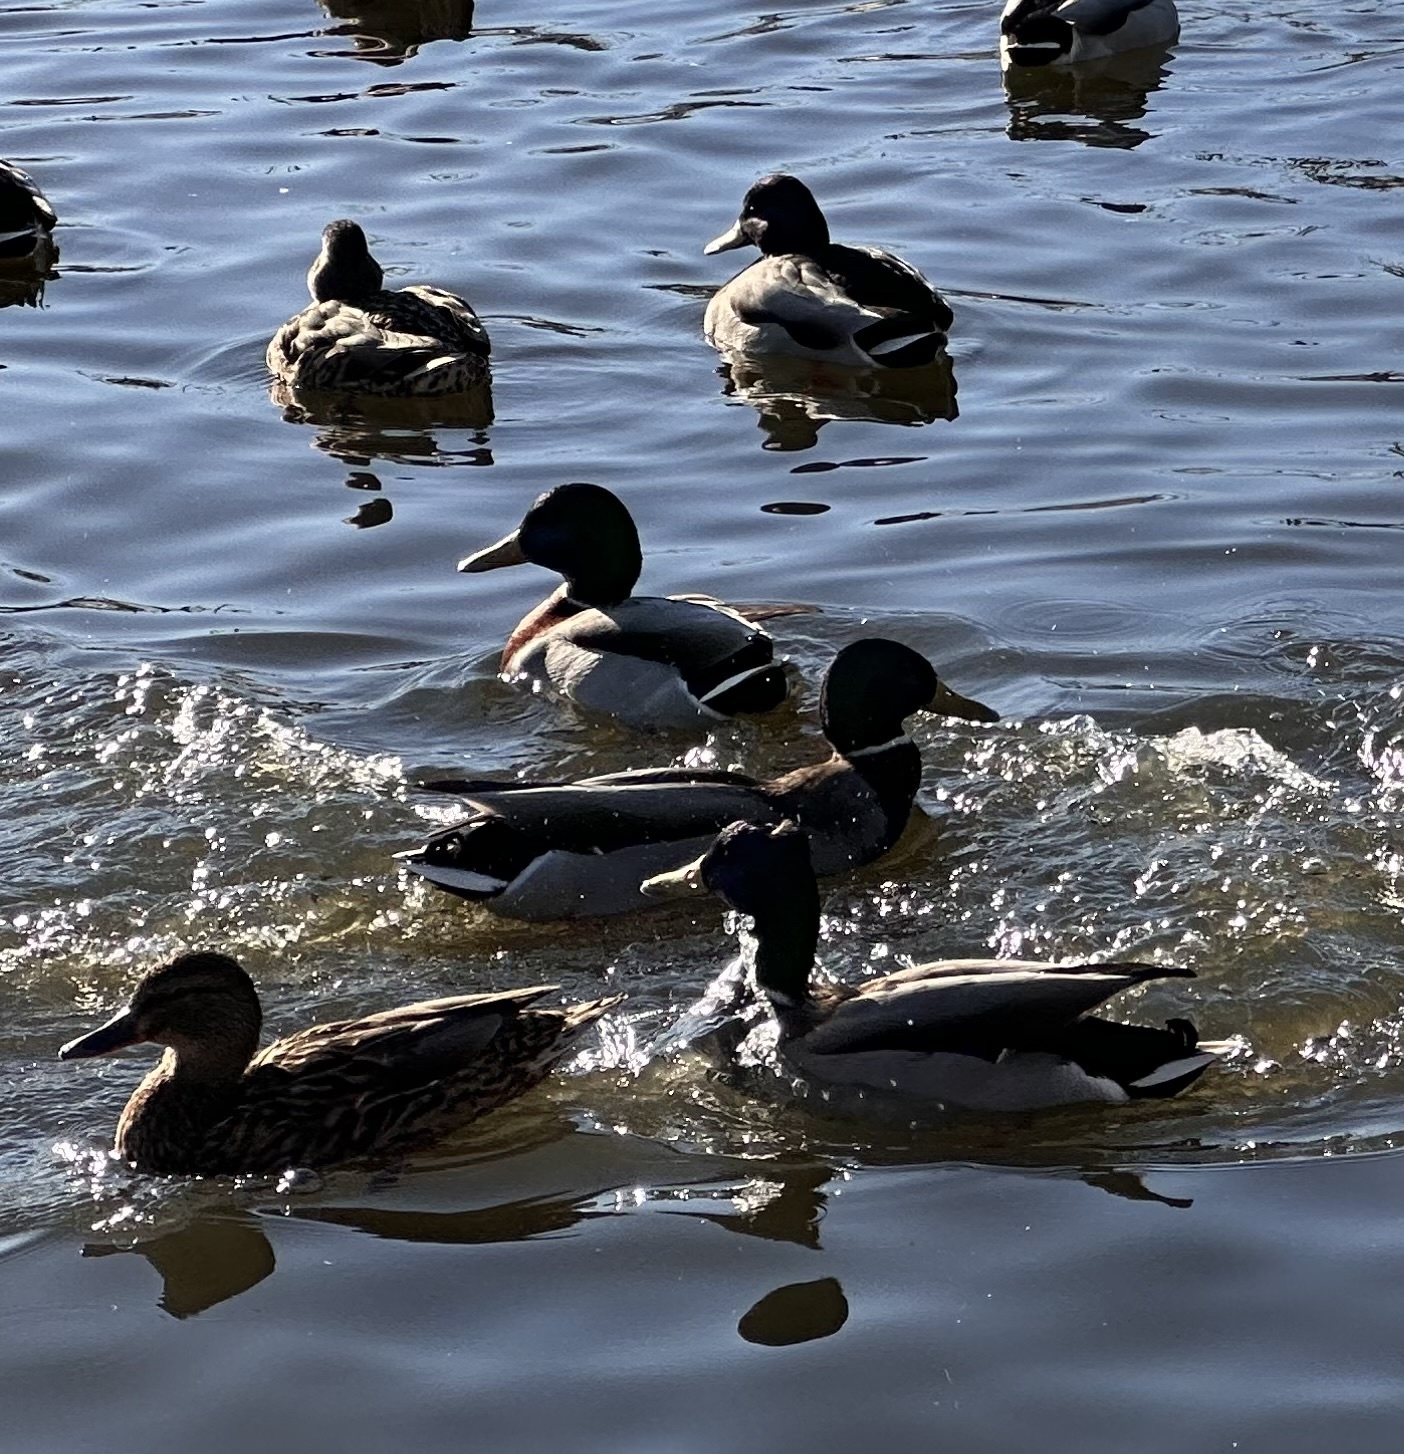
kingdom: Animalia
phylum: Chordata
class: Aves
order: Anseriformes
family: Anatidae
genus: Anas
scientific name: Anas platyrhynchos
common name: Mallard
